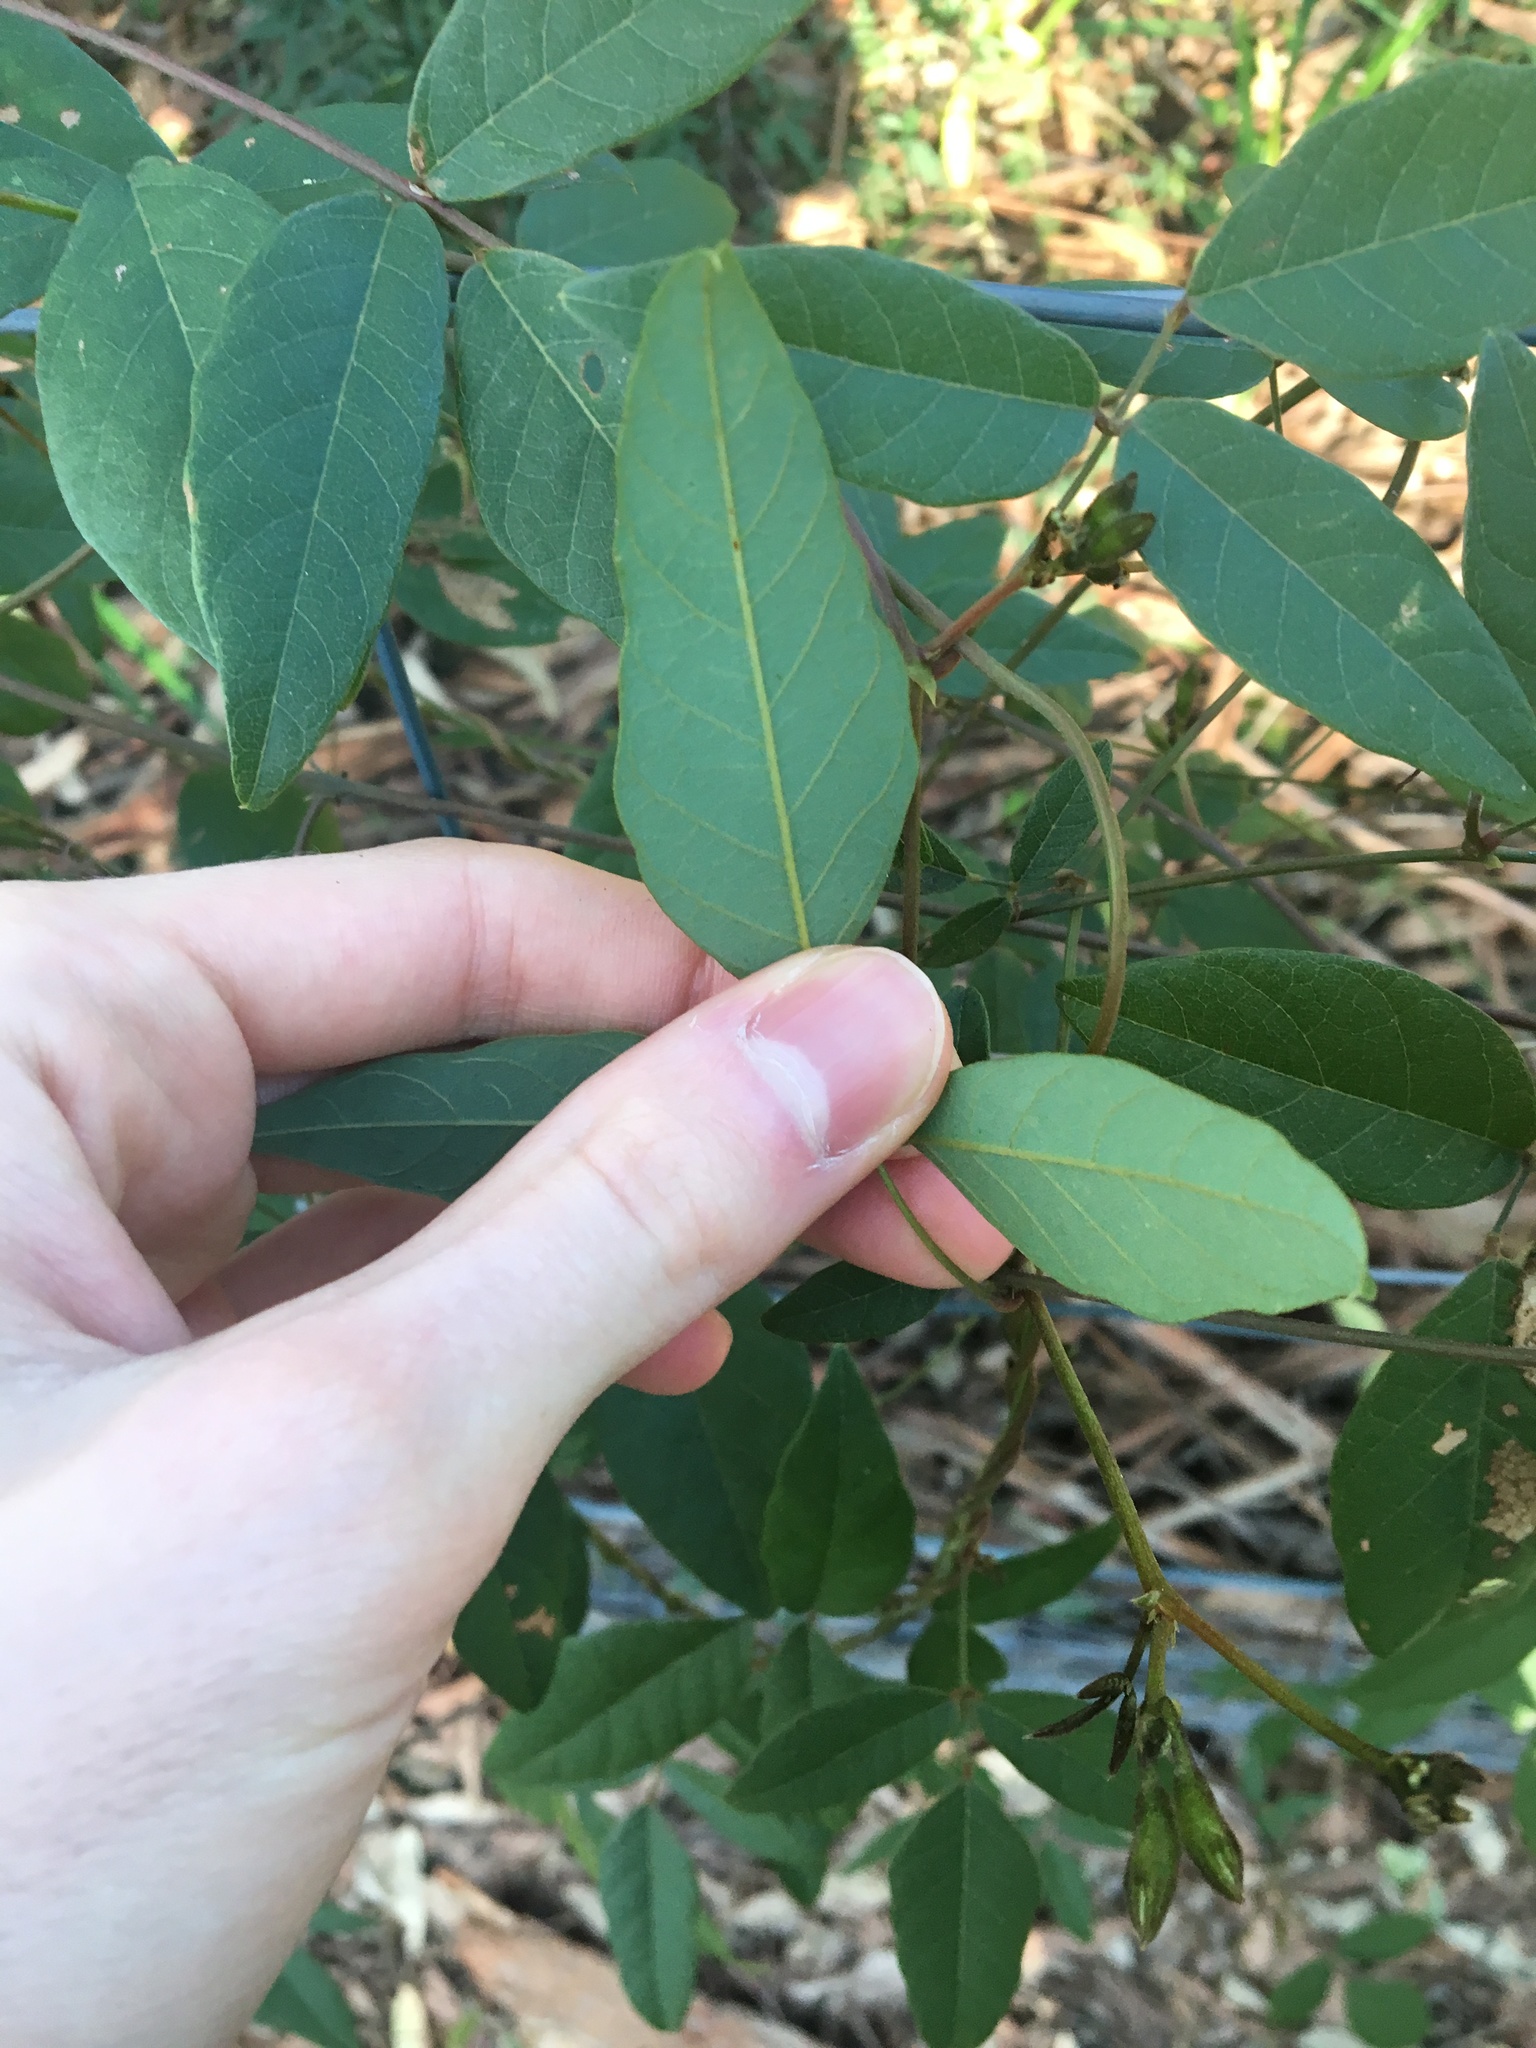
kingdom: Plantae
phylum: Tracheophyta
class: Magnoliopsida
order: Fabales
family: Fabaceae
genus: Kennedia
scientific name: Kennedia rubicunda
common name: Red kennedy-pea
